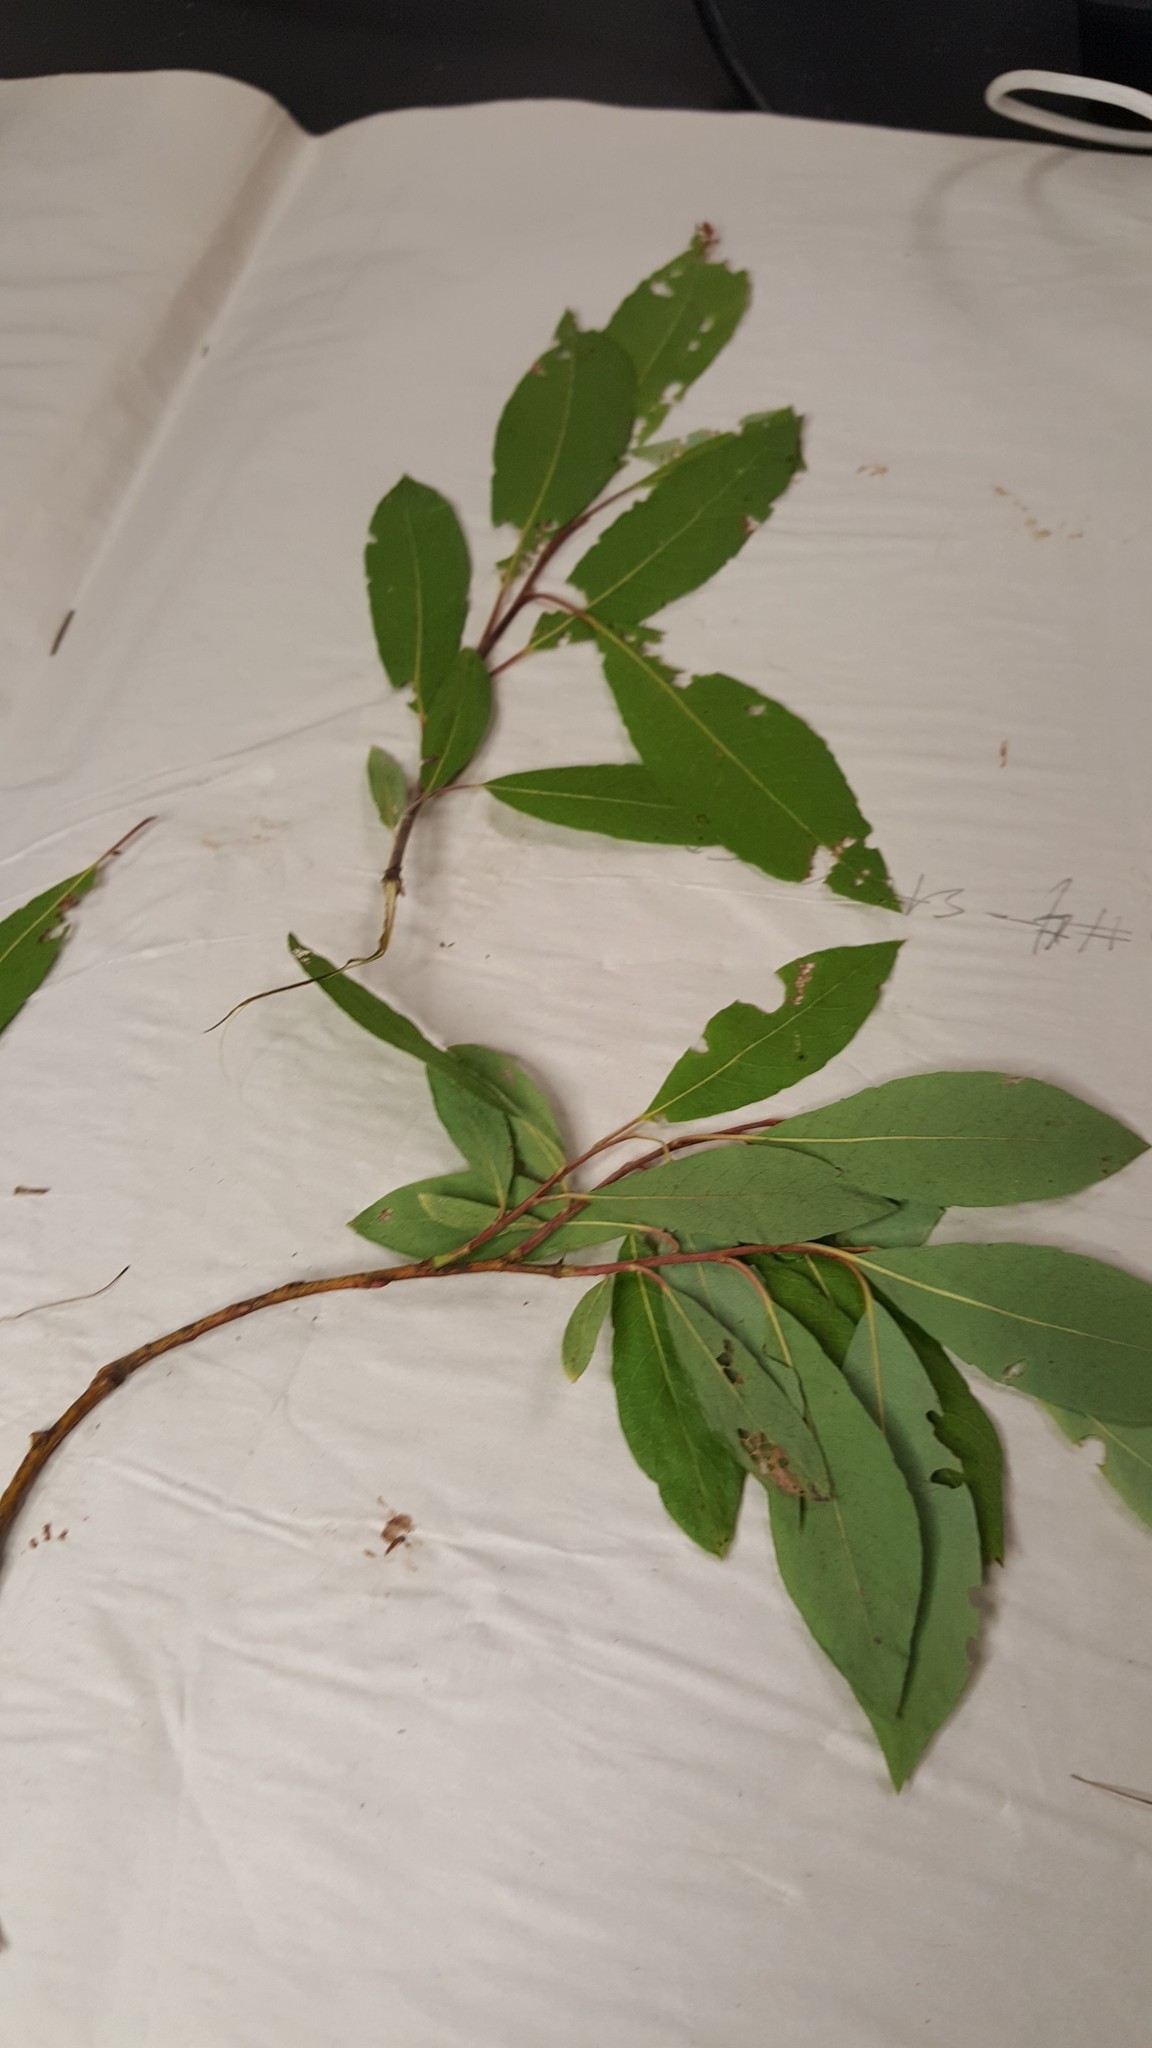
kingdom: Plantae
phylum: Tracheophyta
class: Magnoliopsida
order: Malpighiales
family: Salicaceae
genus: Salix
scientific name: Salix discolor
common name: Glaucous willow
